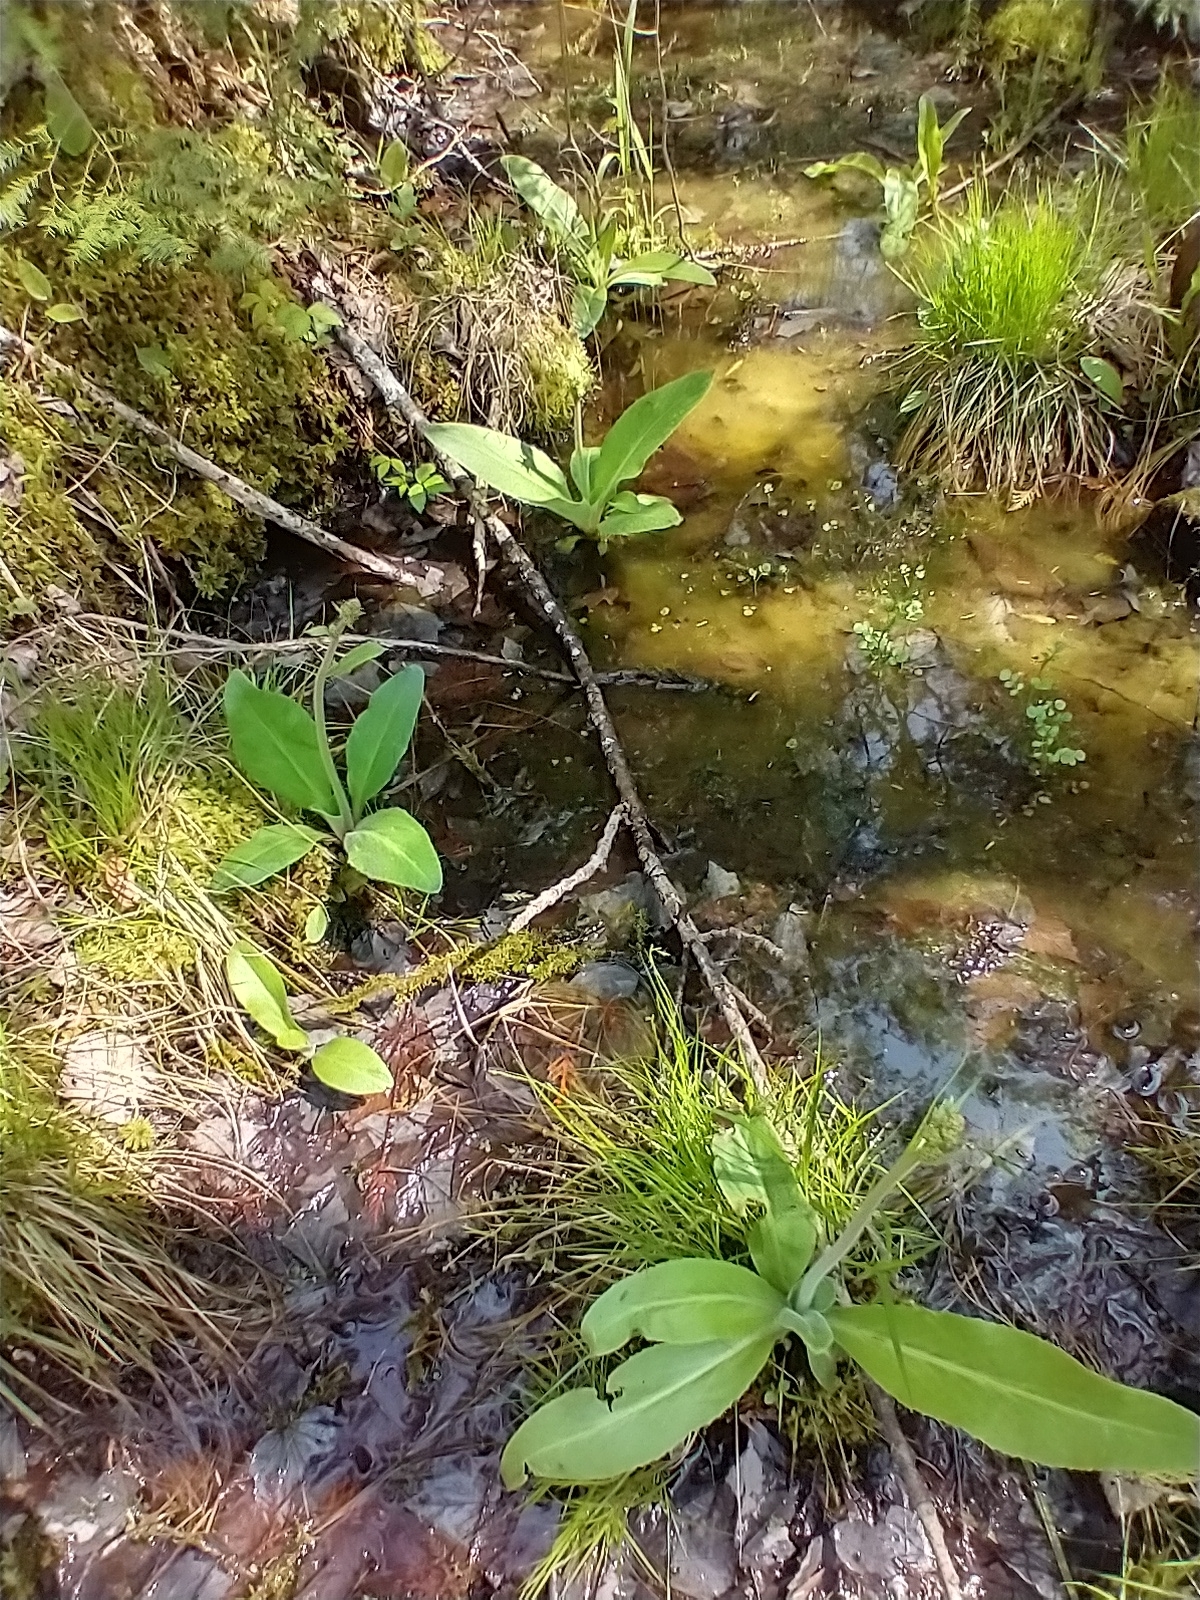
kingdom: Plantae
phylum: Tracheophyta
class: Magnoliopsida
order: Saxifragales
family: Saxifragaceae
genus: Micranthes
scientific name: Micranthes pensylvanica
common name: Marsh saxifrage
